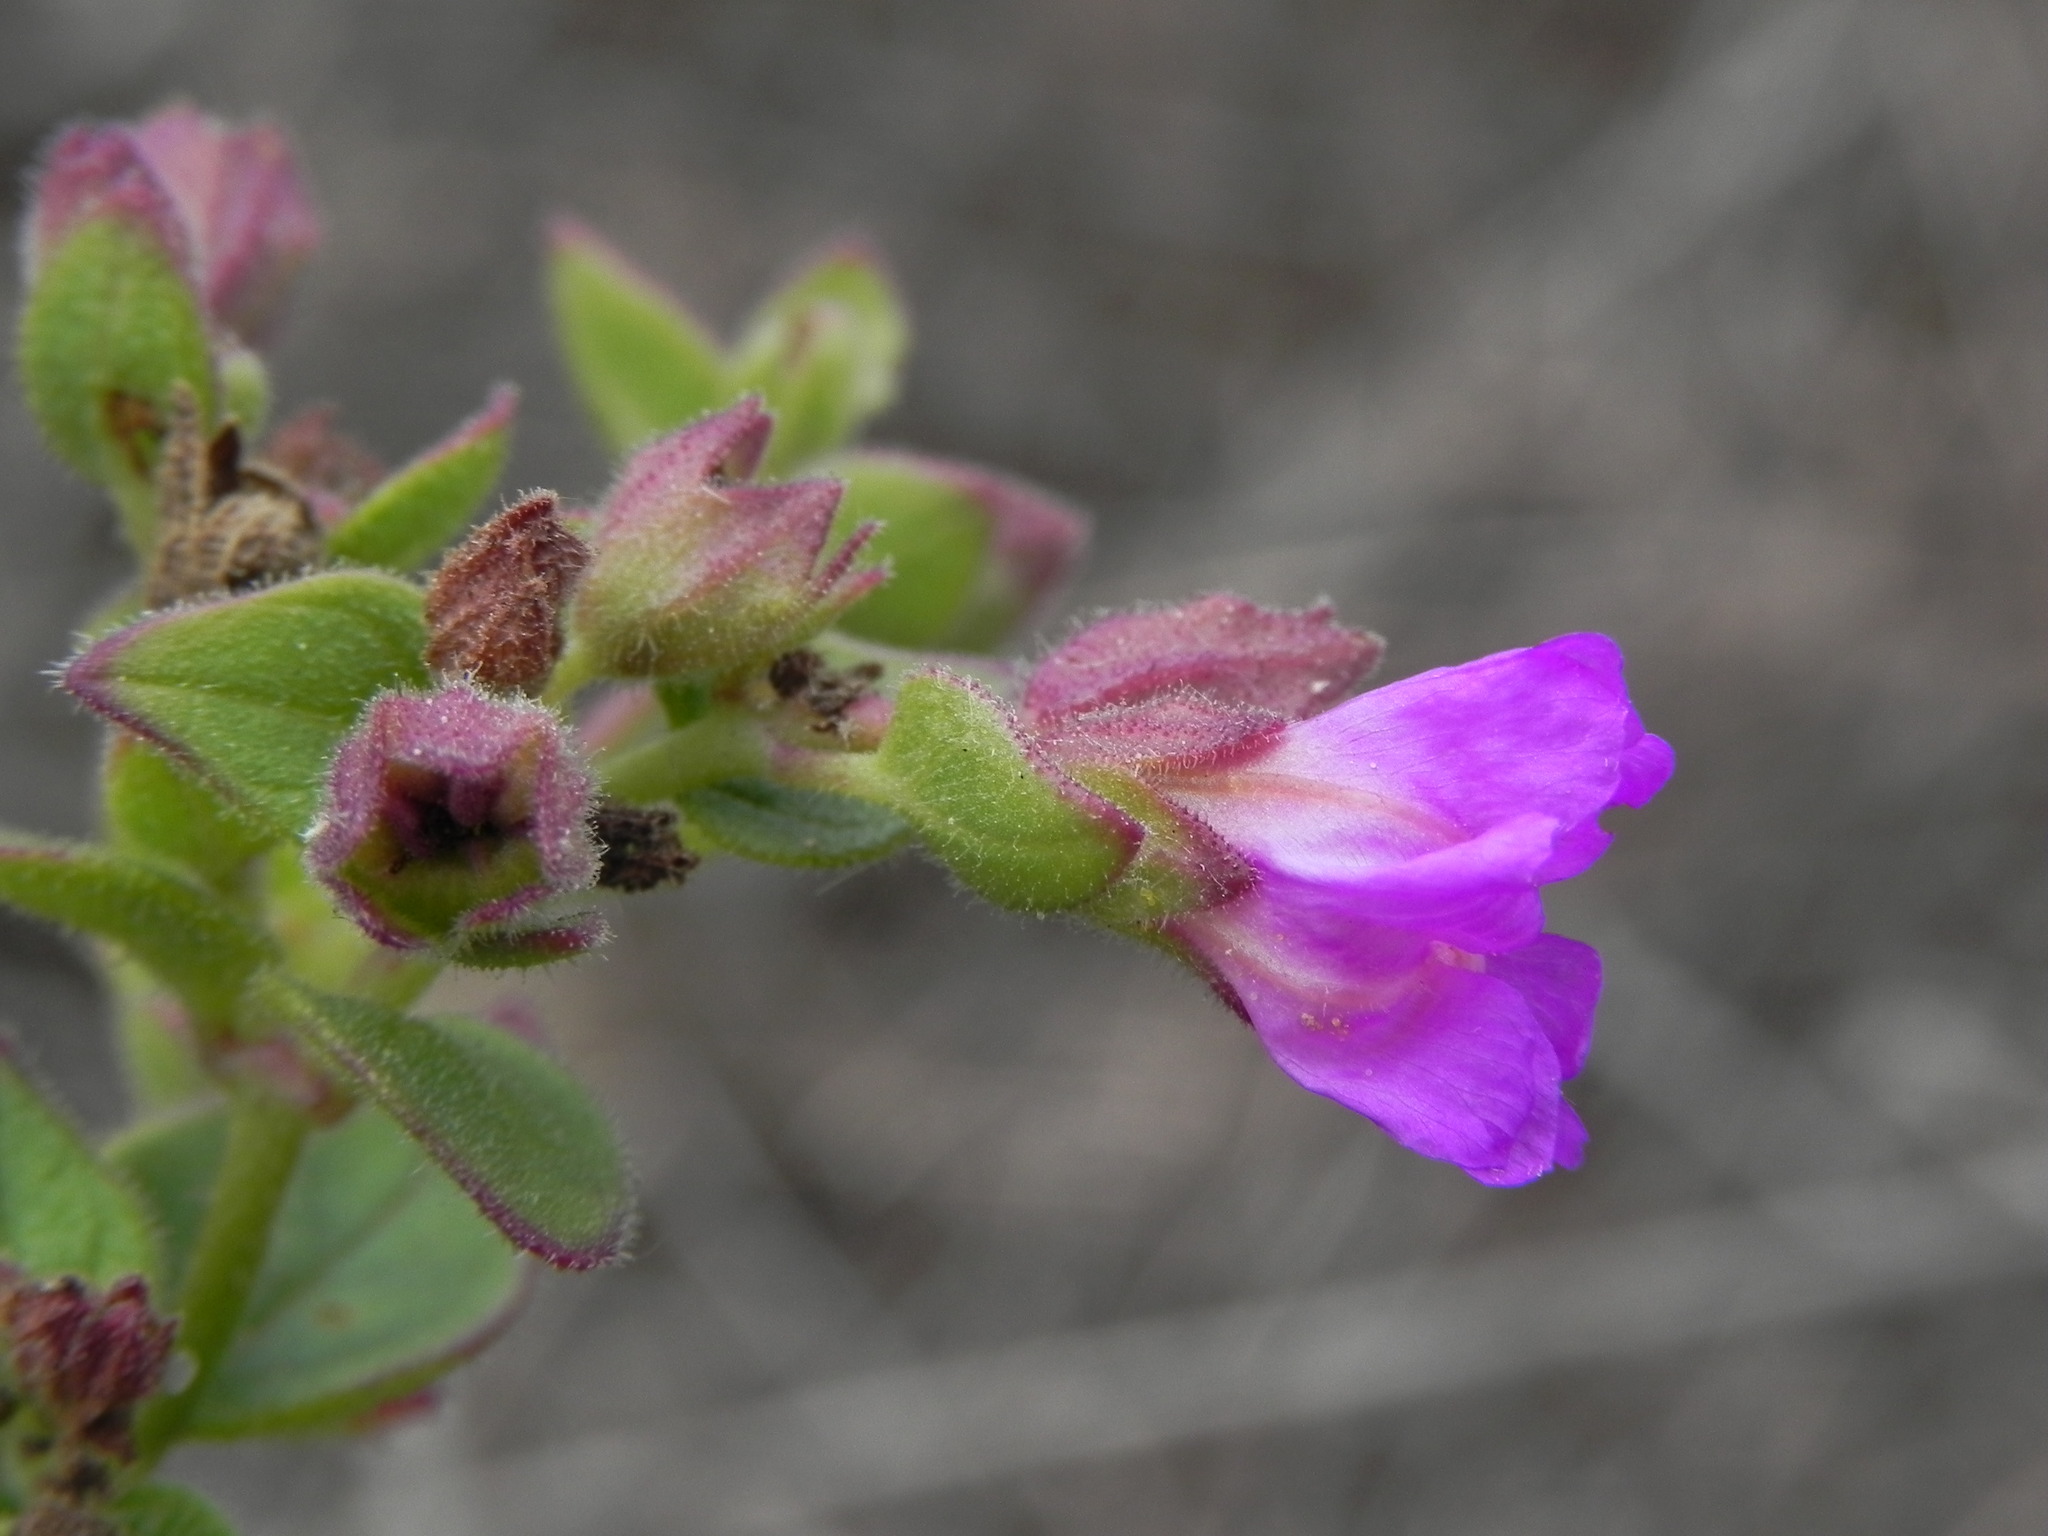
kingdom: Plantae
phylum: Tracheophyta
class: Magnoliopsida
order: Caryophyllales
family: Nyctaginaceae
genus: Mirabilis
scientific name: Mirabilis laevis
